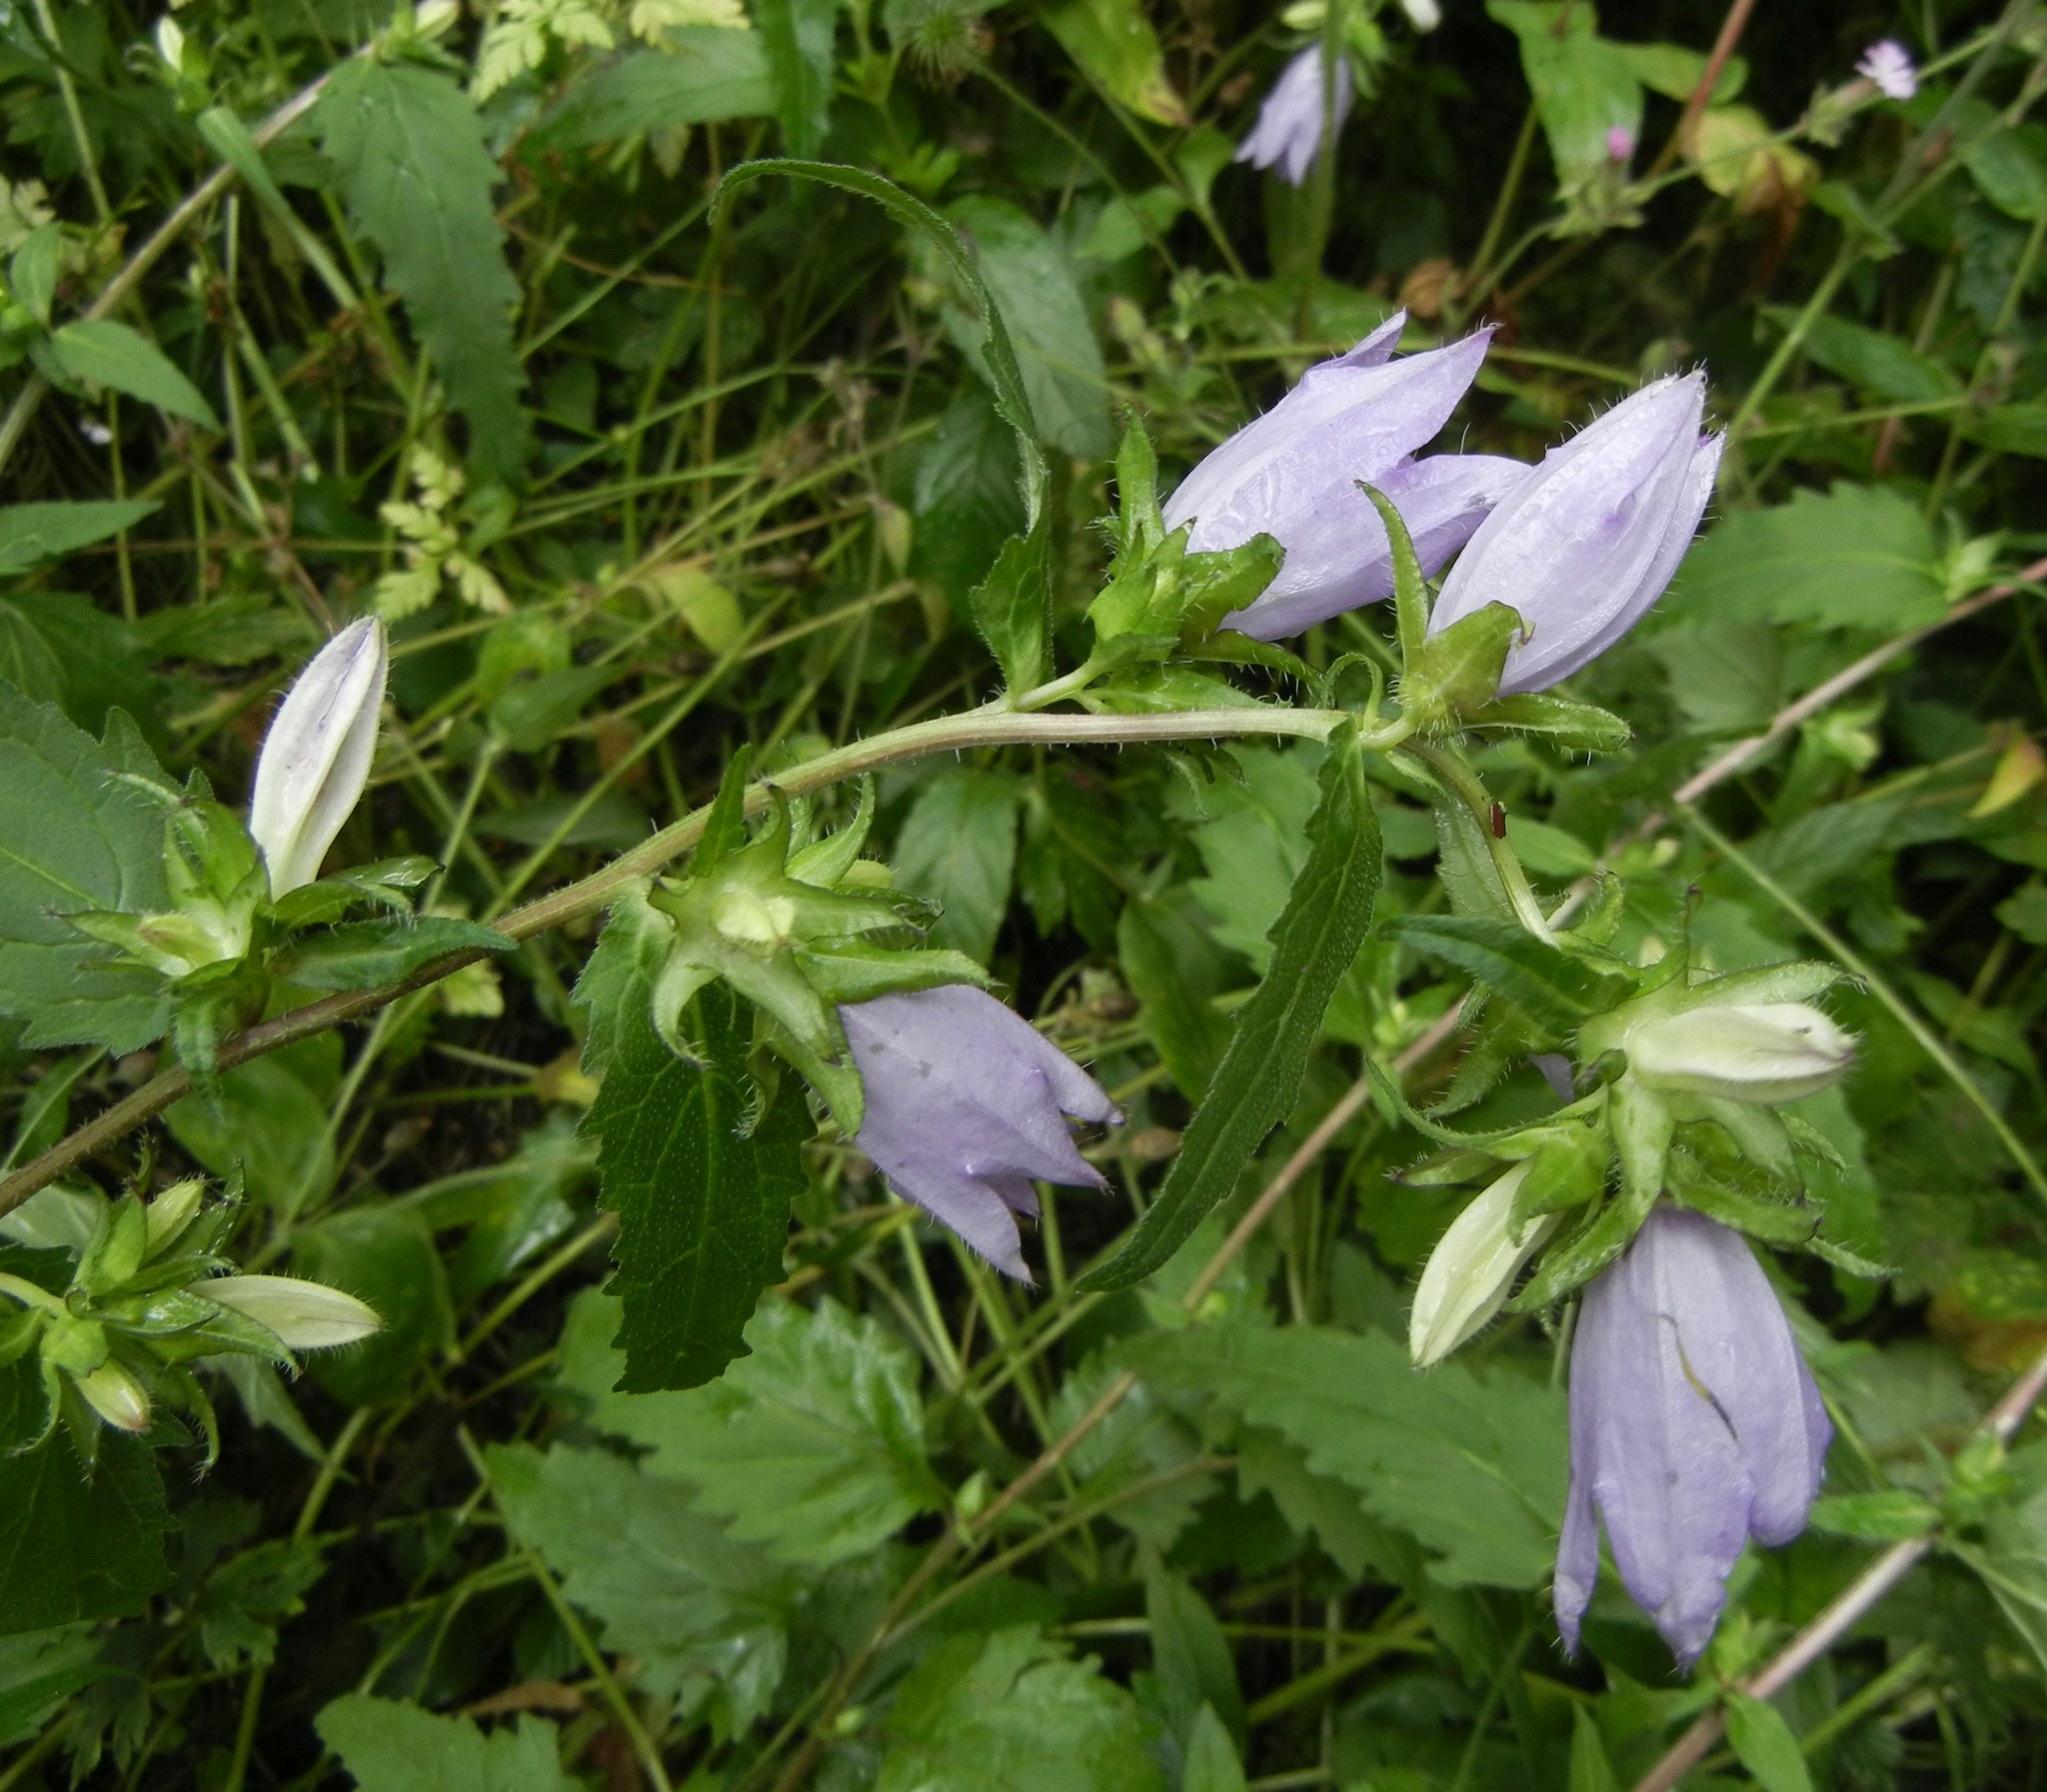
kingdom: Plantae
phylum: Tracheophyta
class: Magnoliopsida
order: Asterales
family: Campanulaceae
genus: Campanula
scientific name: Campanula trachelium
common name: Nettle-leaved bellflower
